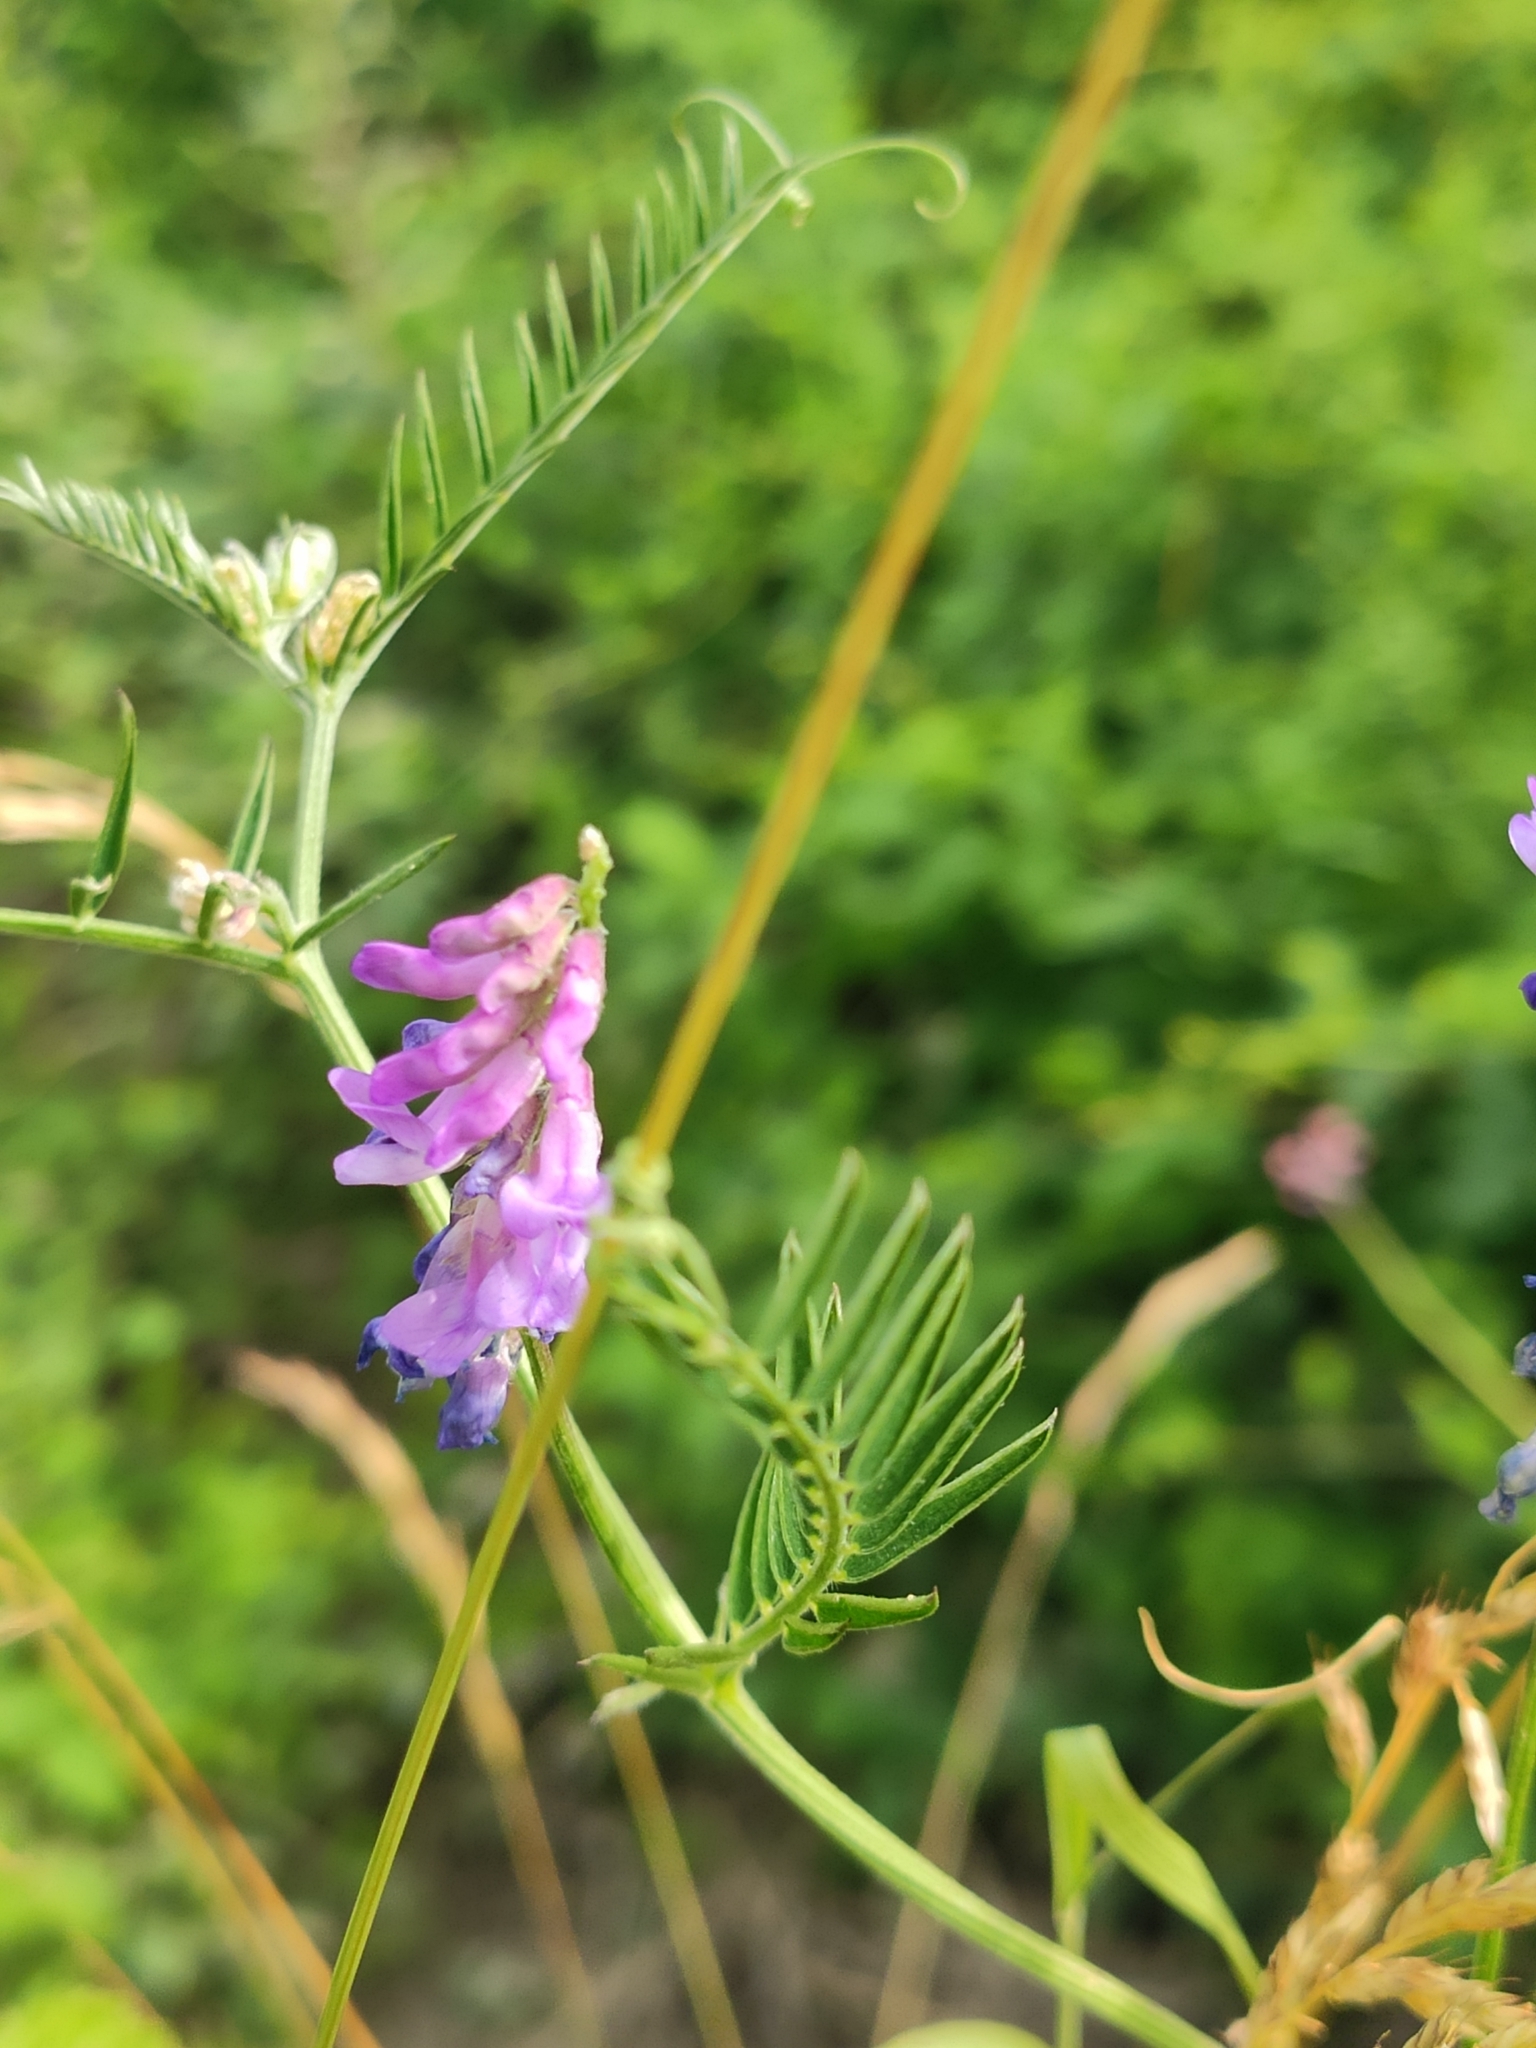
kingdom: Plantae
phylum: Tracheophyta
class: Magnoliopsida
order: Fabales
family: Fabaceae
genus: Vicia
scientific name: Vicia cracca
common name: Bird vetch
